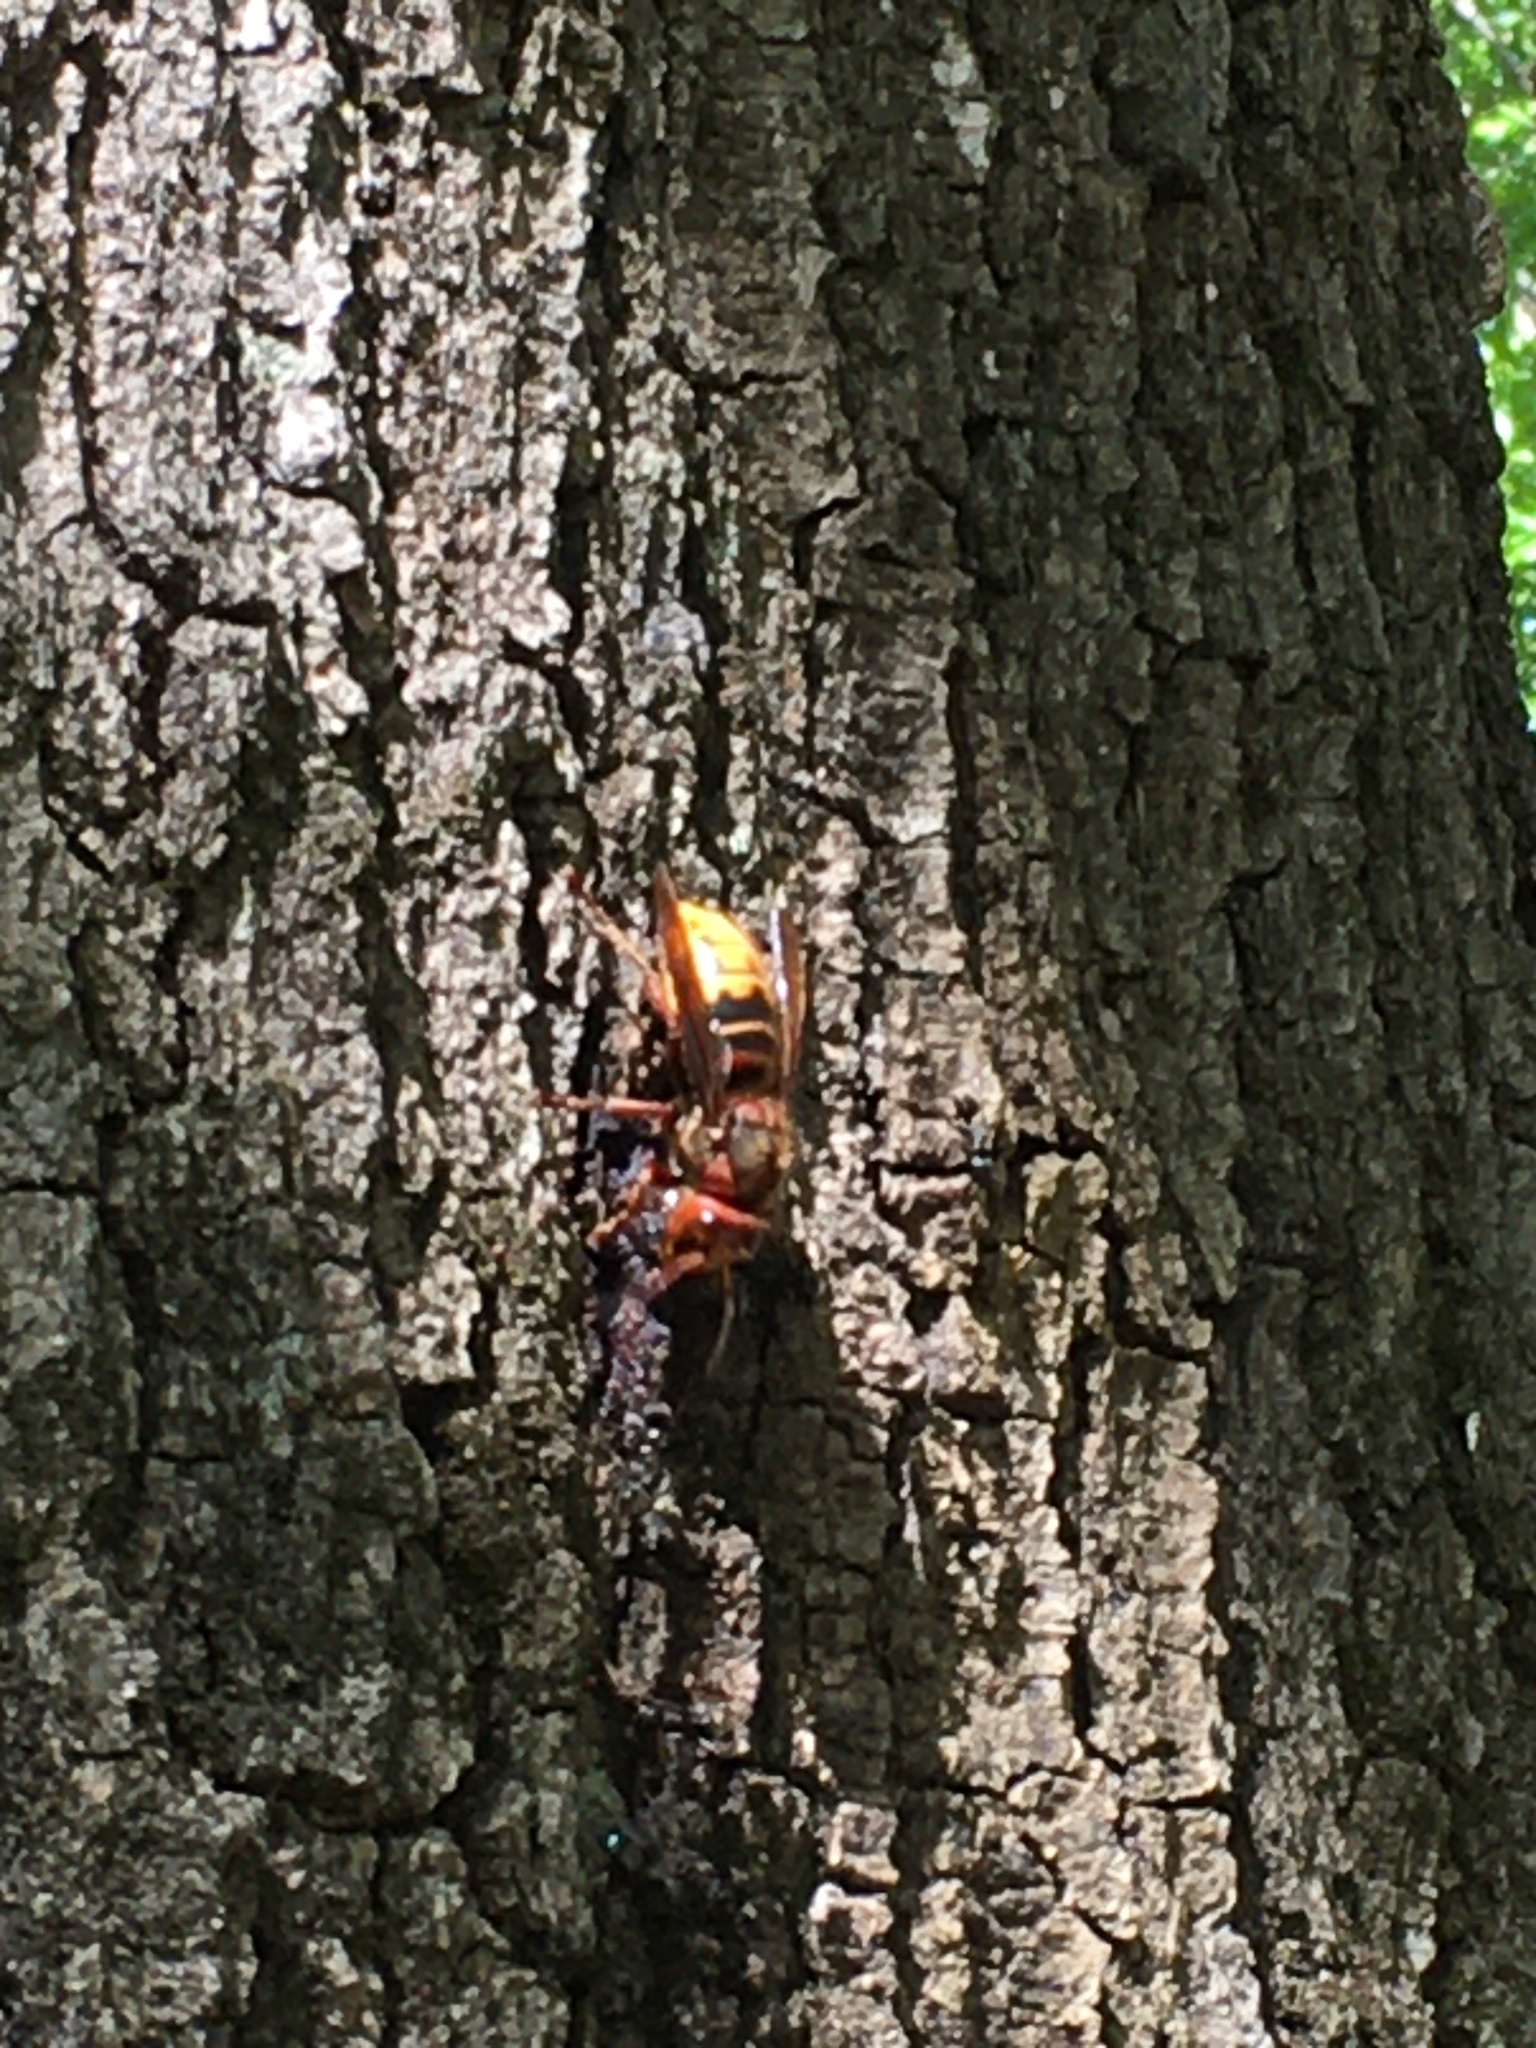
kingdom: Animalia
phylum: Arthropoda
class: Insecta
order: Hymenoptera
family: Vespidae
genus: Vespa
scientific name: Vespa crabro
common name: Hornet
